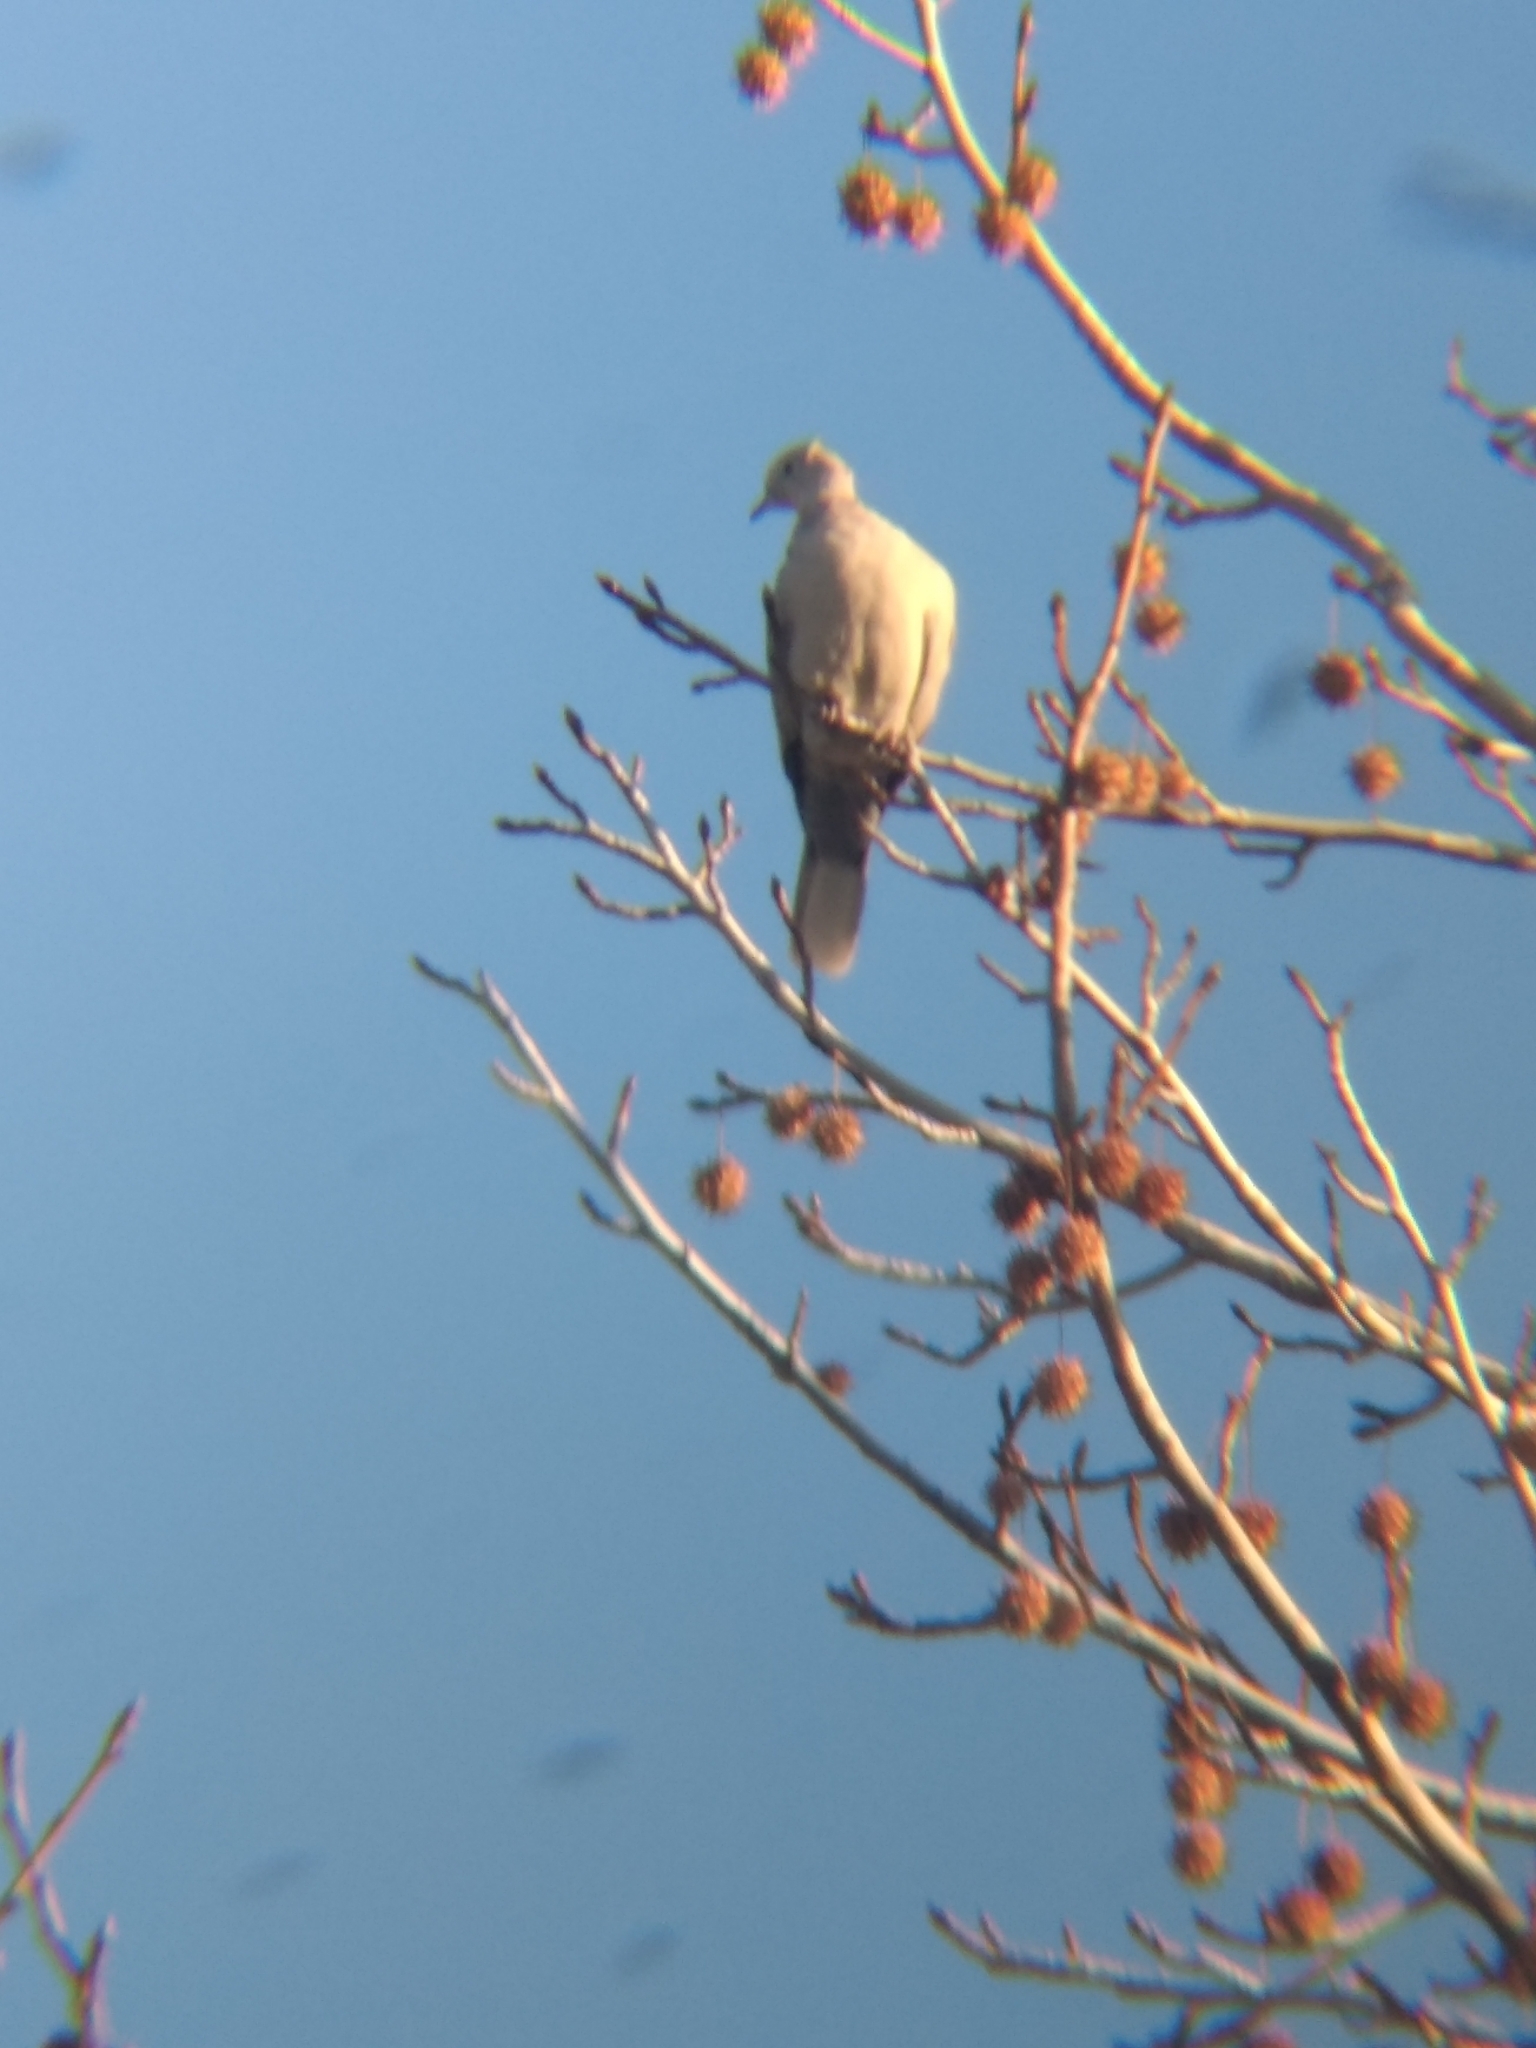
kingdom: Animalia
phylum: Chordata
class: Aves
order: Columbiformes
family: Columbidae
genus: Streptopelia
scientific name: Streptopelia decaocto
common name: Eurasian collared dove
